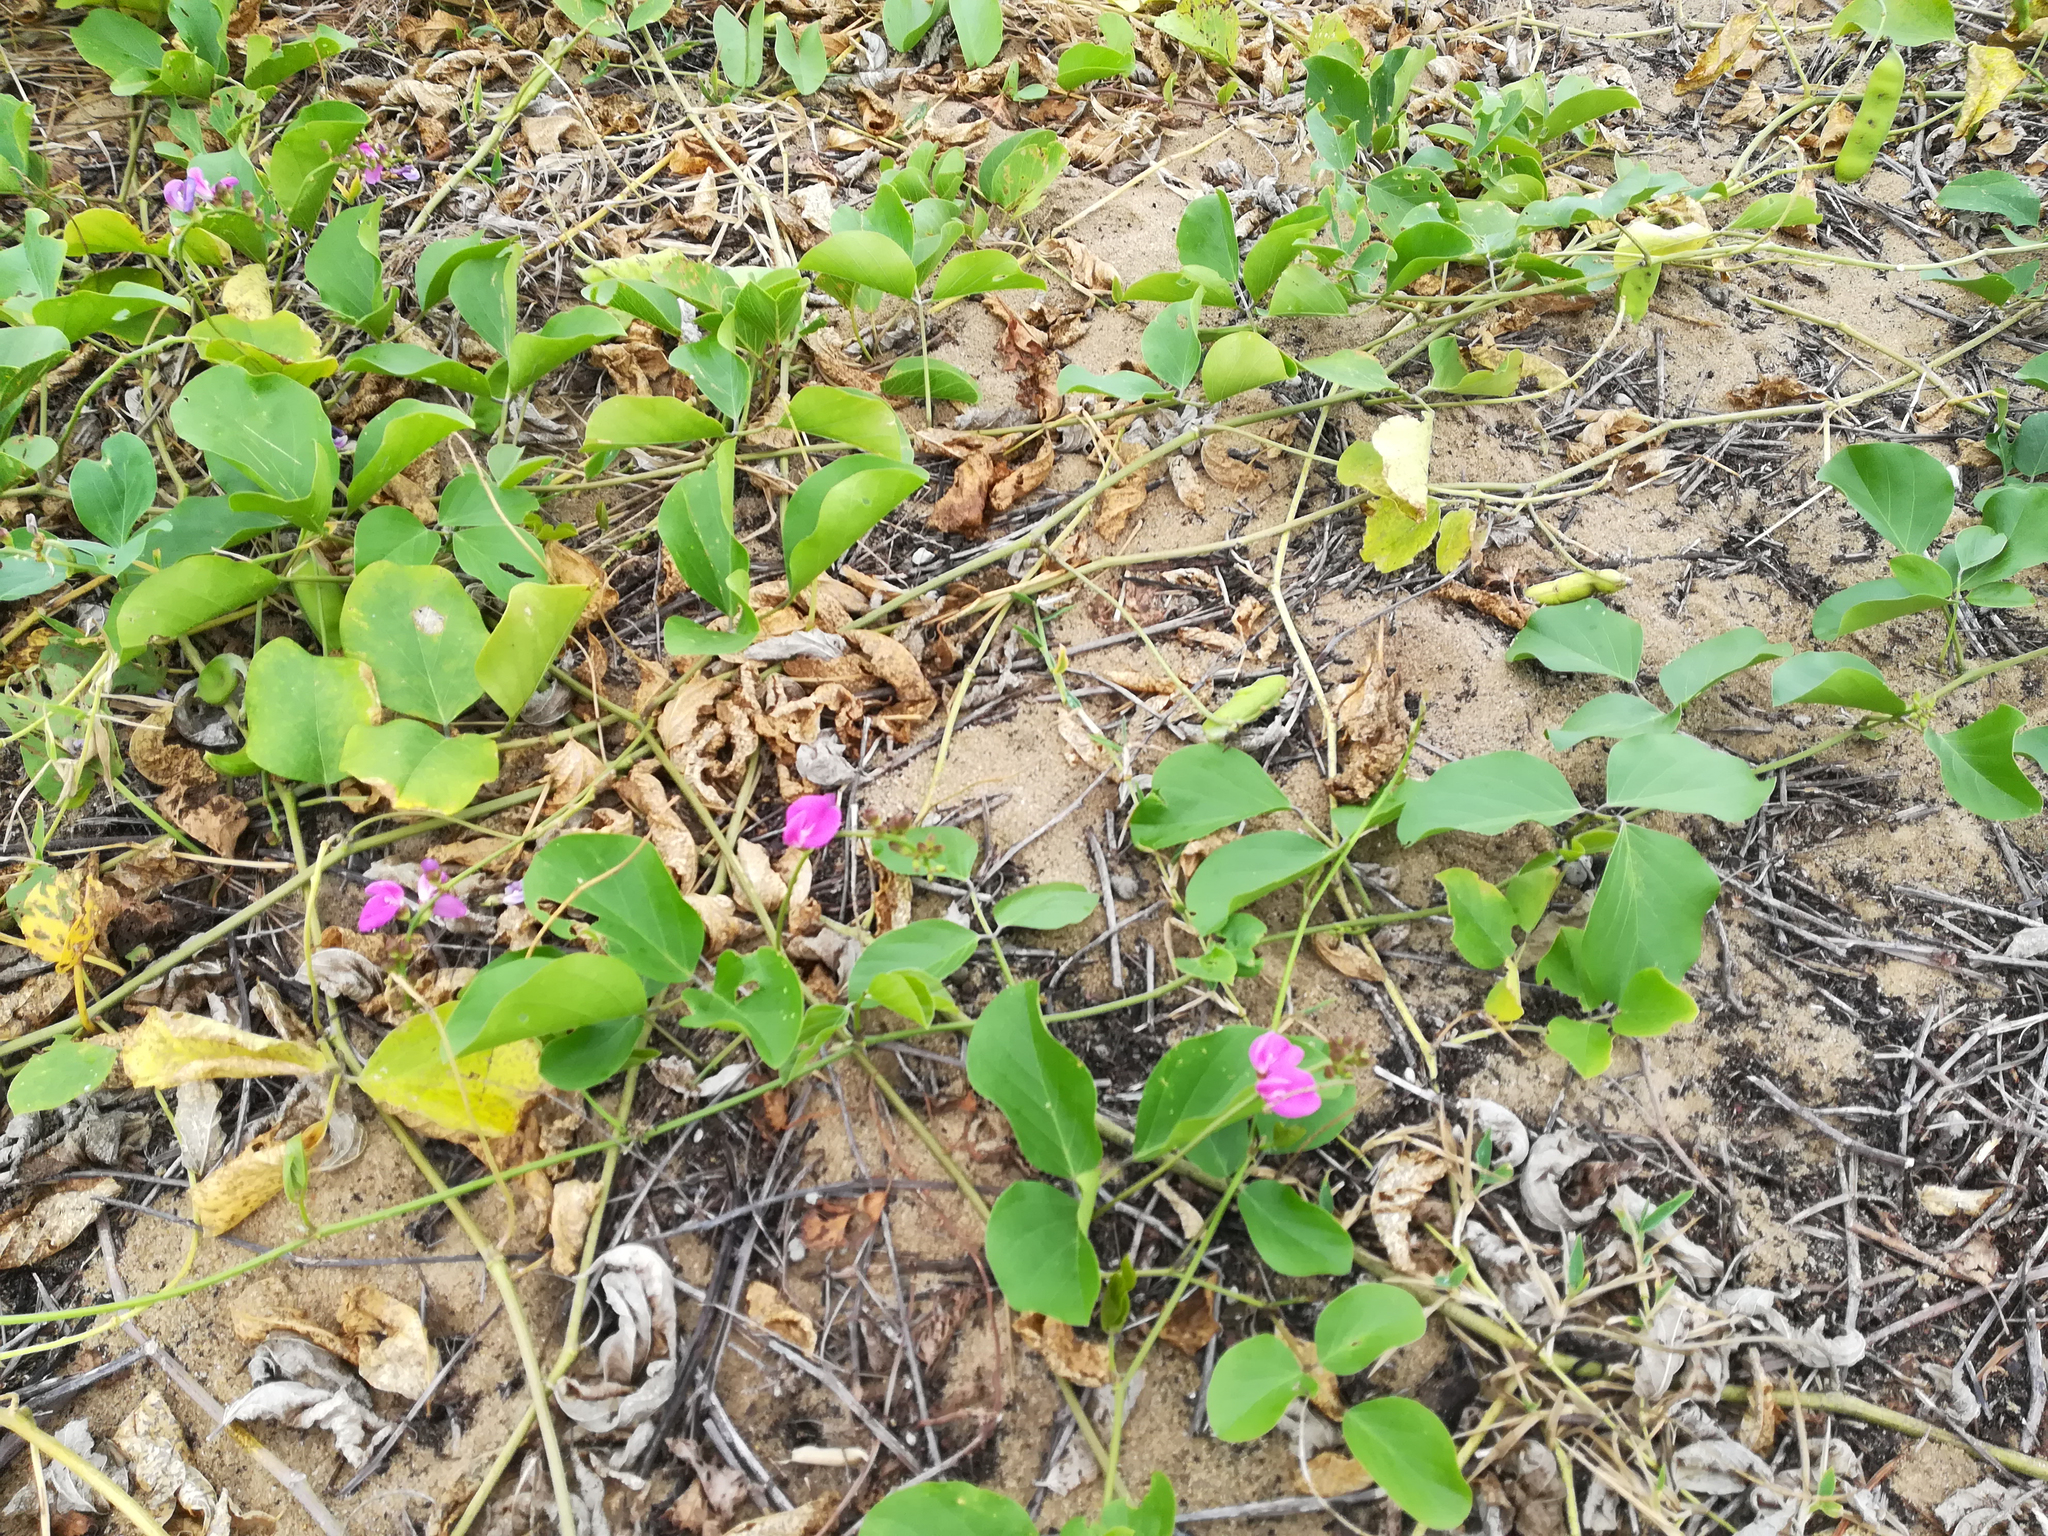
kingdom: Plantae
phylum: Tracheophyta
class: Magnoliopsida
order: Fabales
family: Fabaceae
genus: Canavalia
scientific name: Canavalia rosea
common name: Beach-bean
